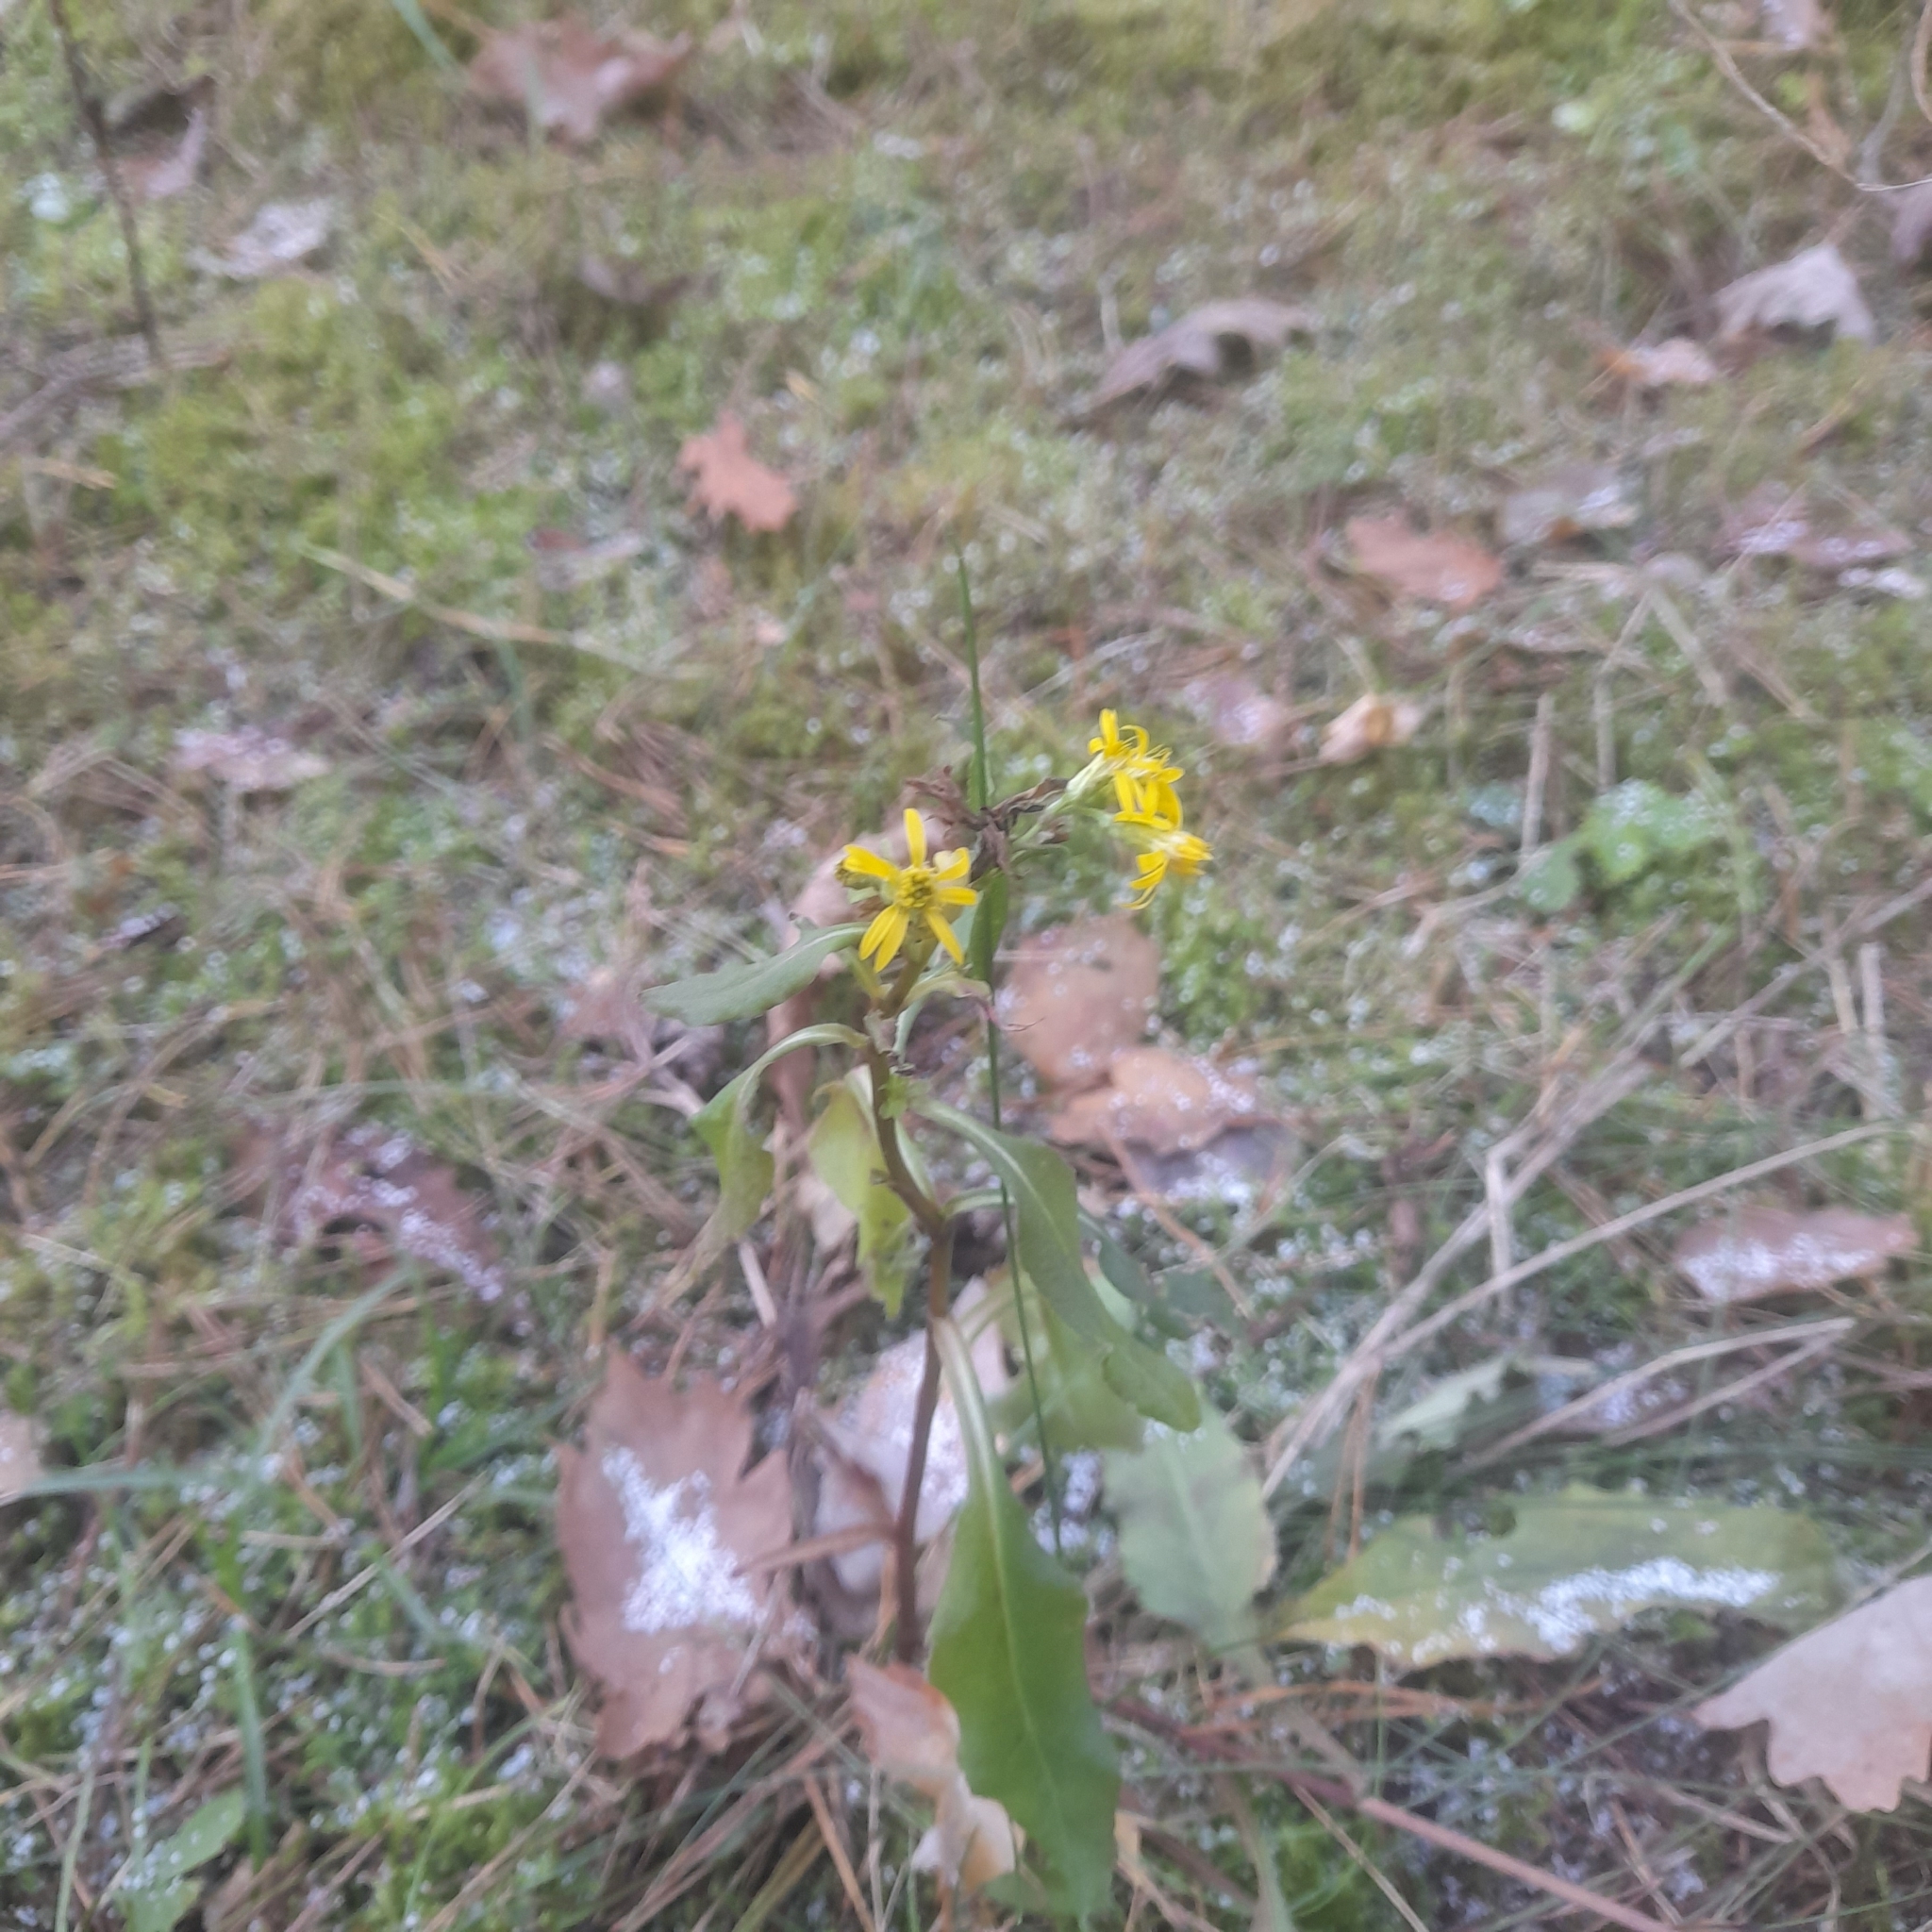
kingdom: Plantae
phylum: Tracheophyta
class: Magnoliopsida
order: Asterales
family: Asteraceae
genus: Solidago
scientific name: Solidago virgaurea
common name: Goldenrod
